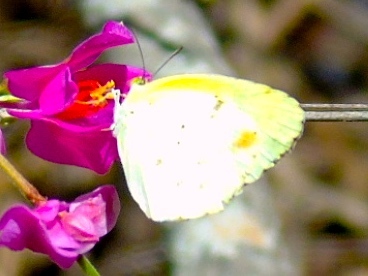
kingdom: Animalia
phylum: Arthropoda
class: Insecta
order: Lepidoptera
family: Pieridae
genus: Pyrisitia
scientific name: Pyrisitia lisa
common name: Little yellow
